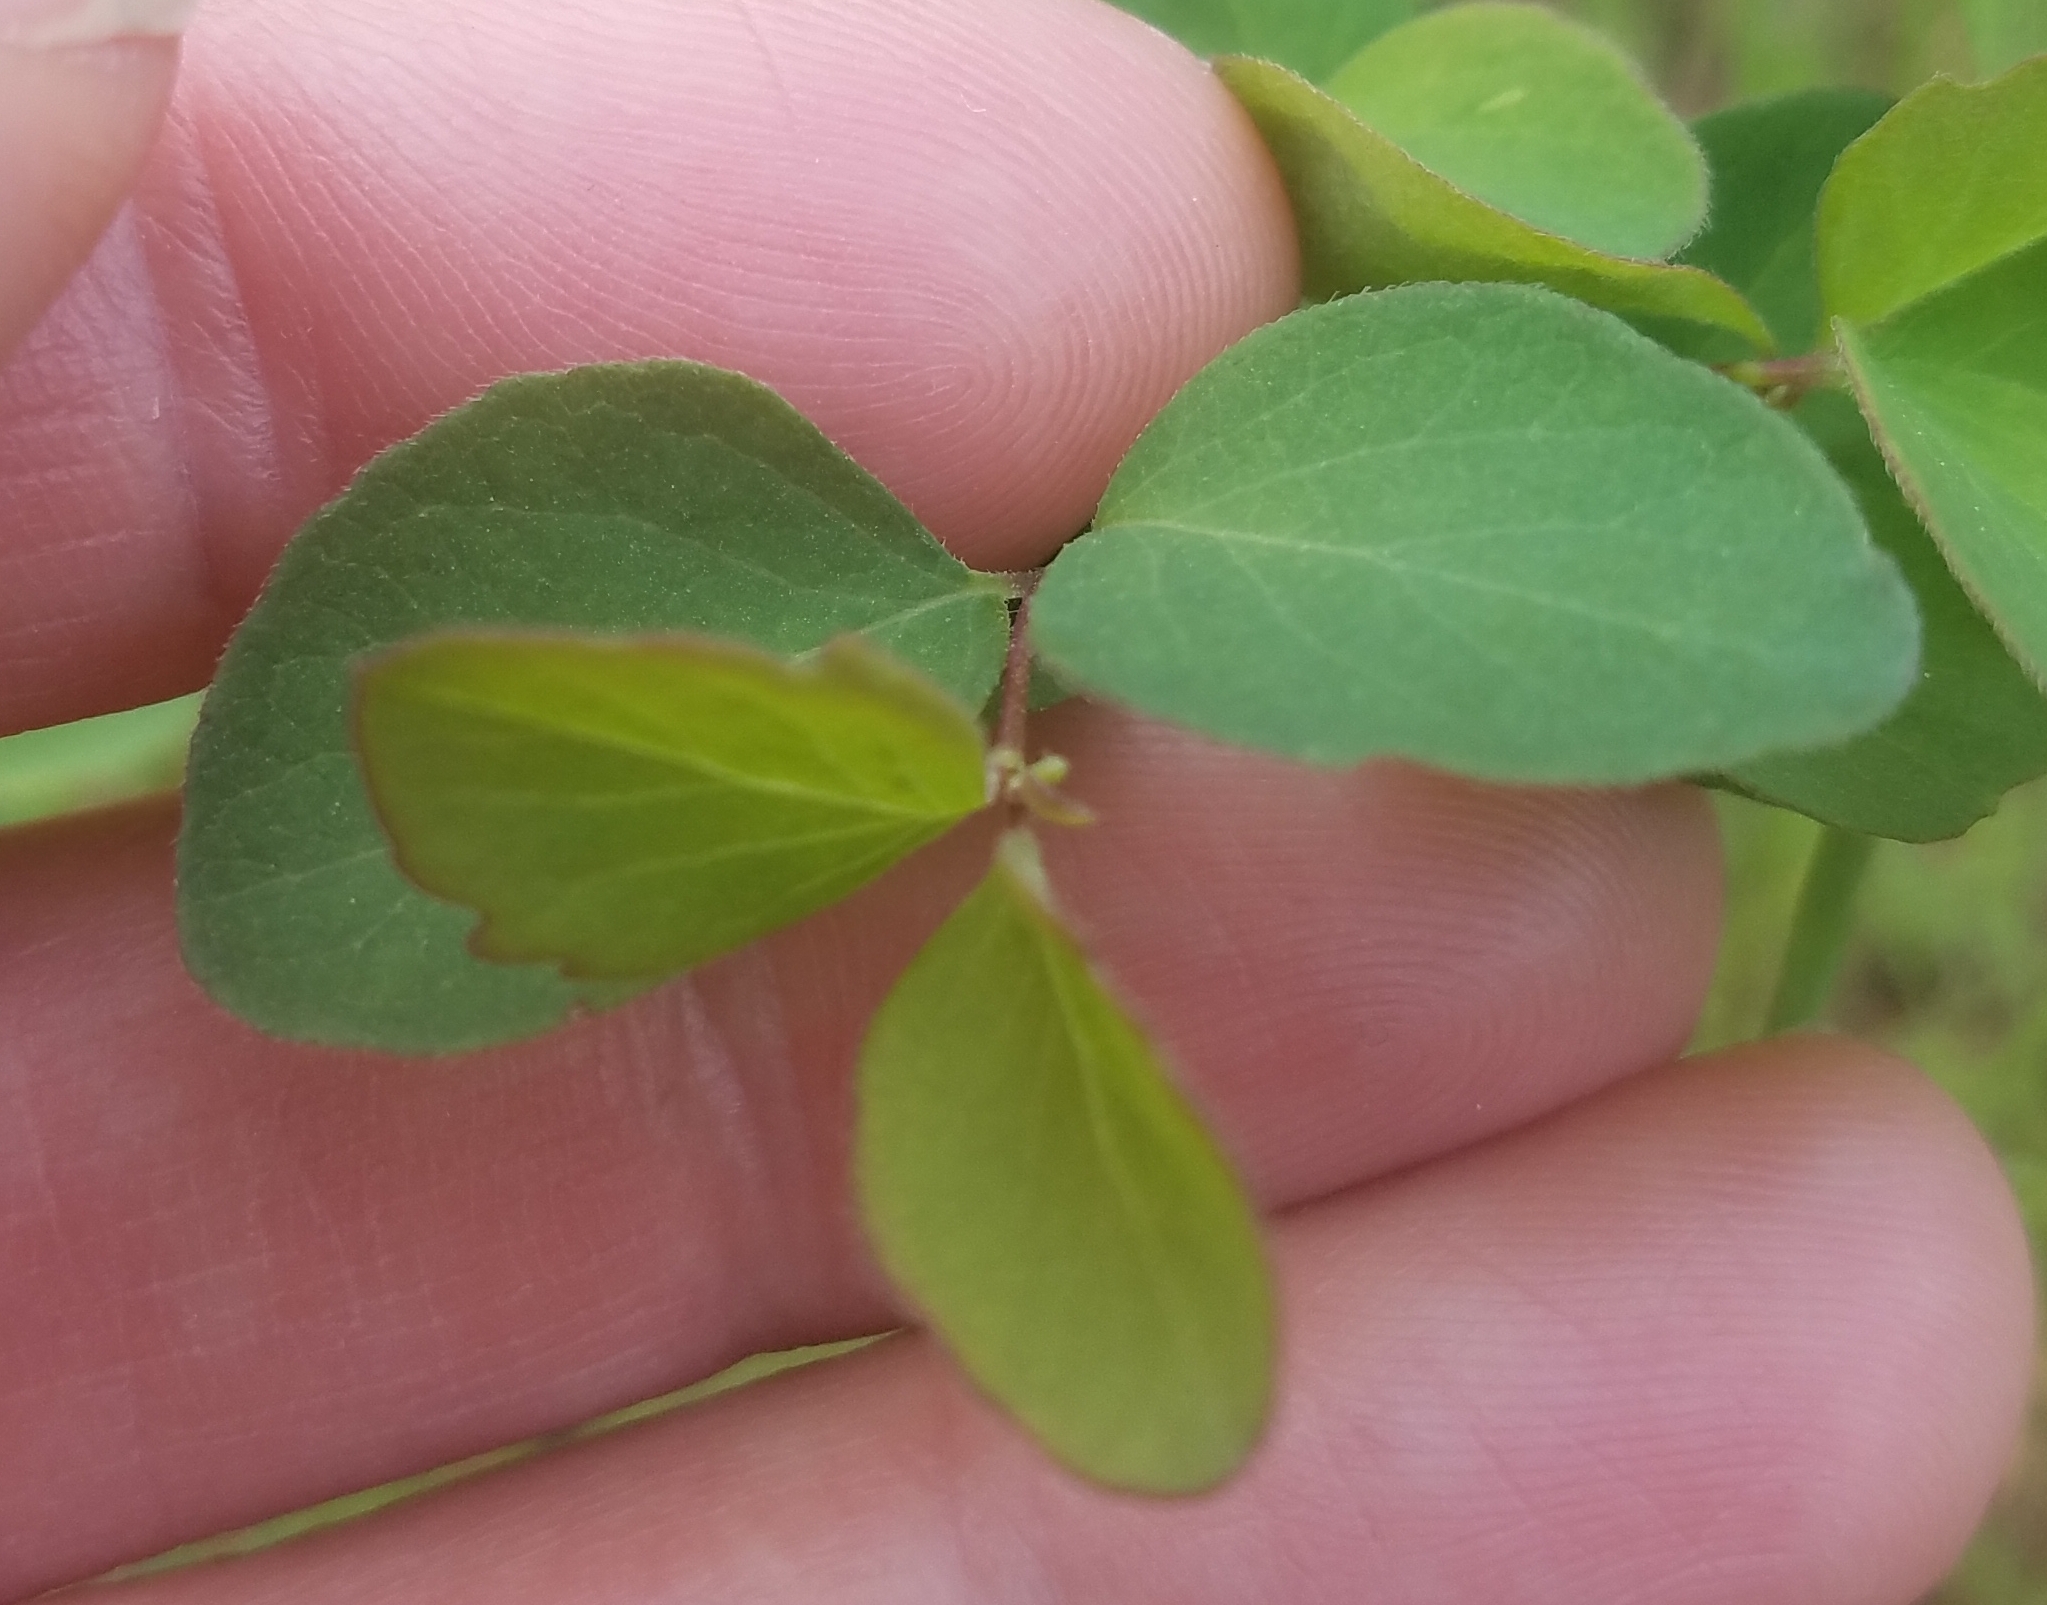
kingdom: Plantae
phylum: Tracheophyta
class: Magnoliopsida
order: Dipsacales
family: Caprifoliaceae
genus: Symphoricarpos
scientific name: Symphoricarpos albus
